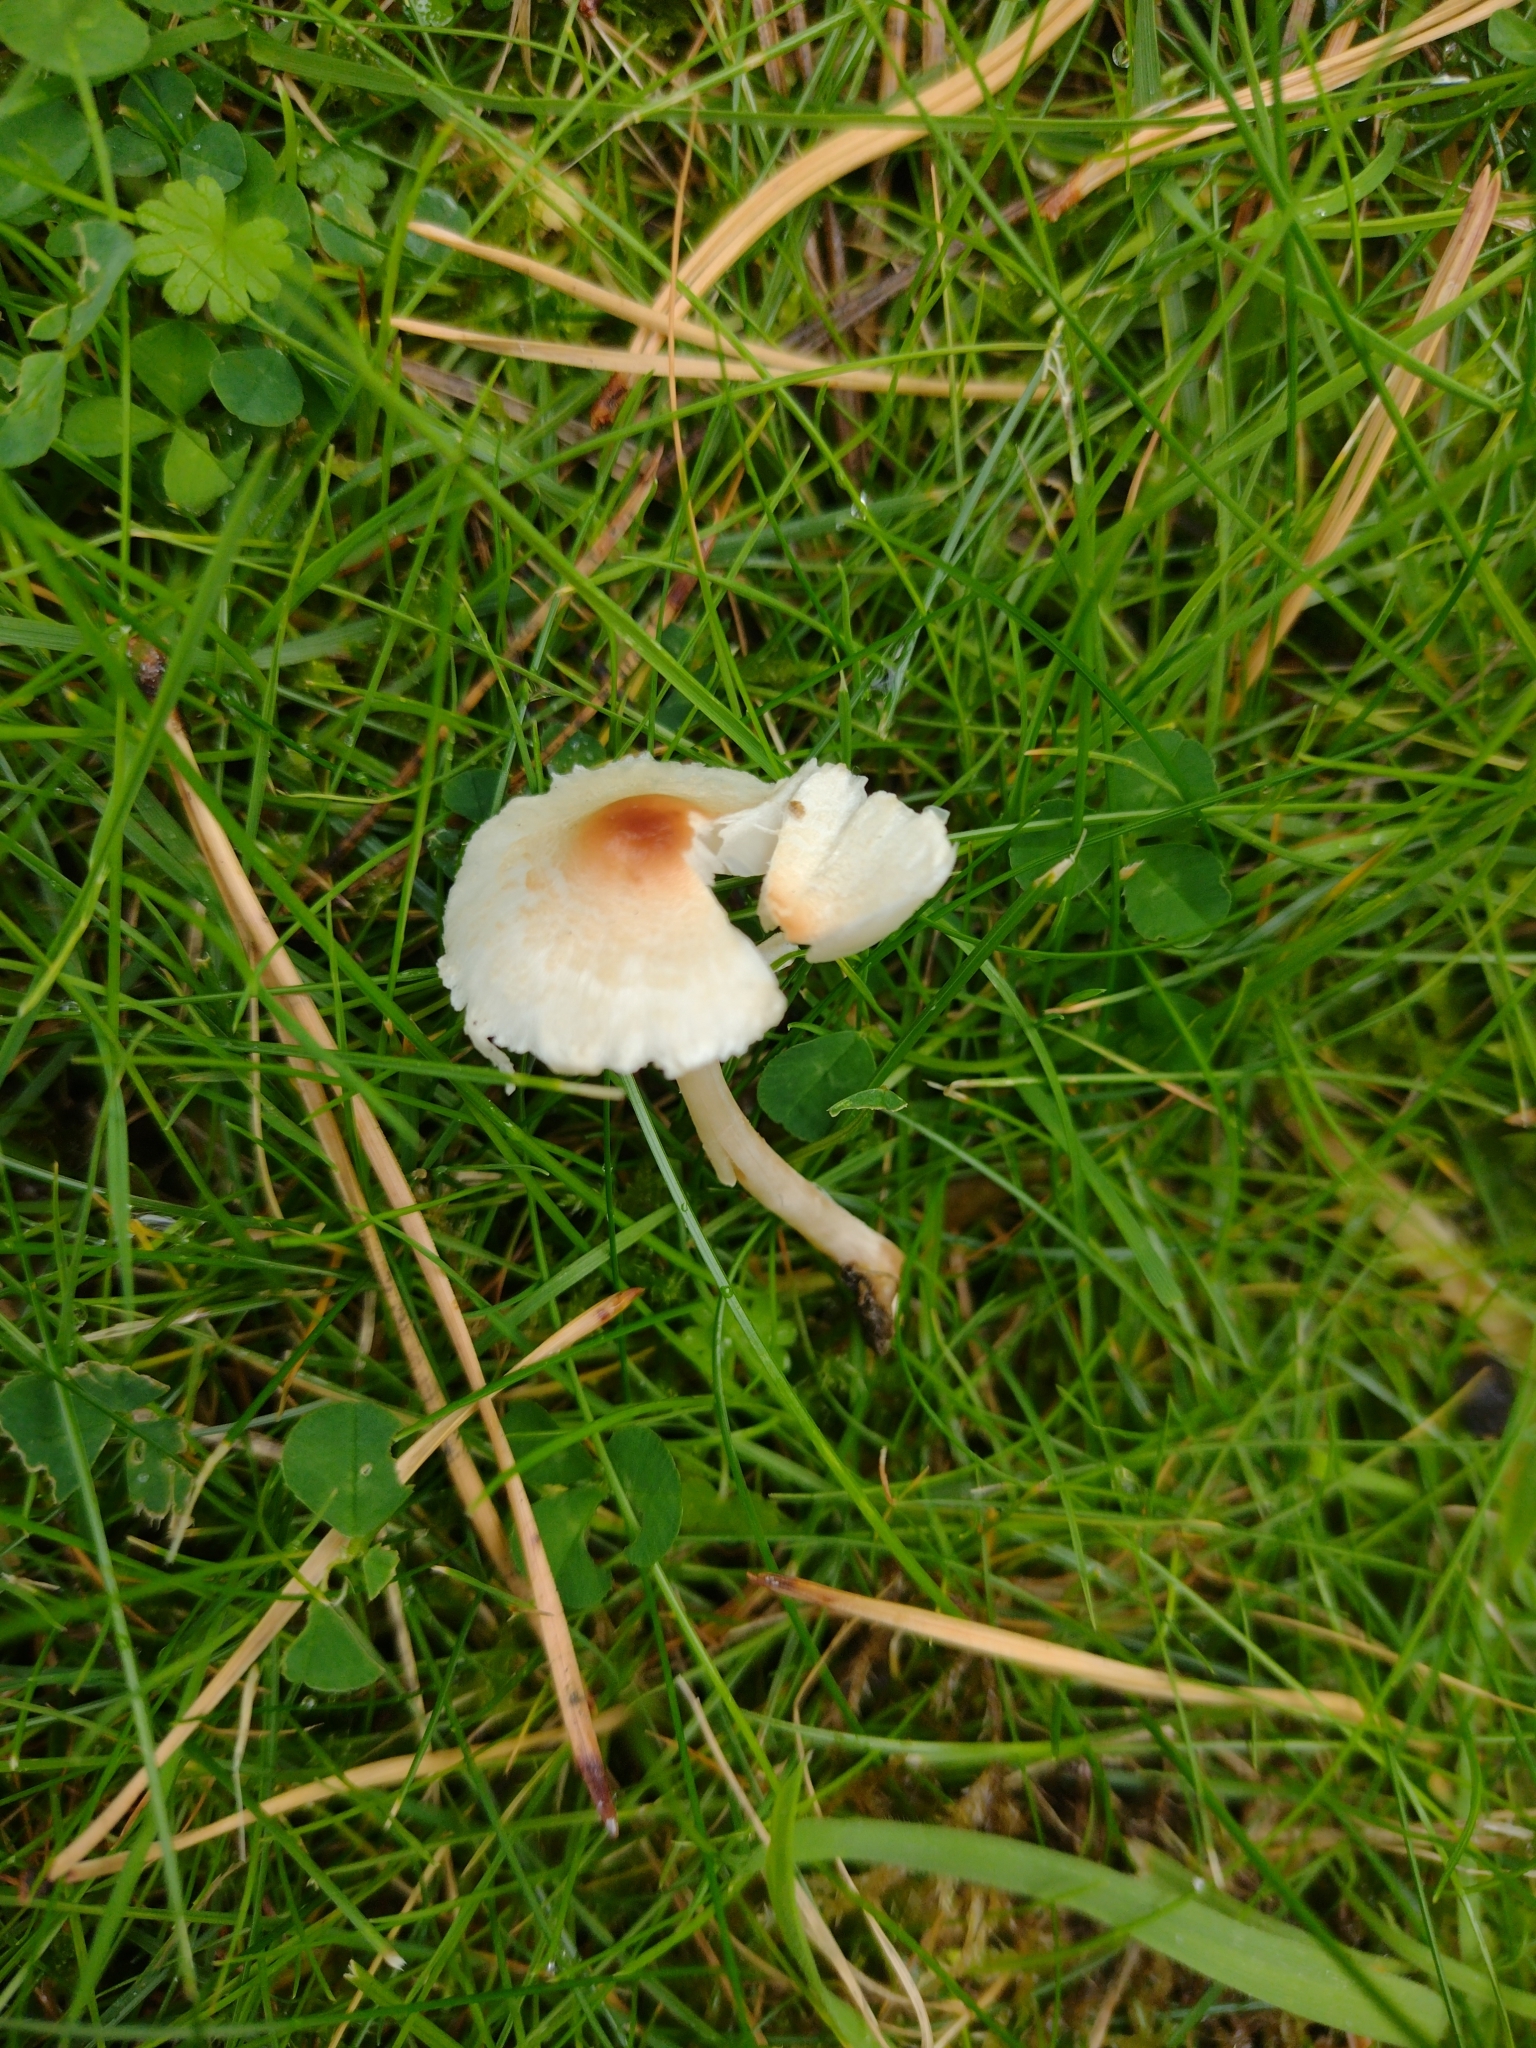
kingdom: Fungi
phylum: Basidiomycota
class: Agaricomycetes
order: Agaricales
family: Agaricaceae
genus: Lepiota
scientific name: Lepiota cristata
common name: Stinking dapperling
